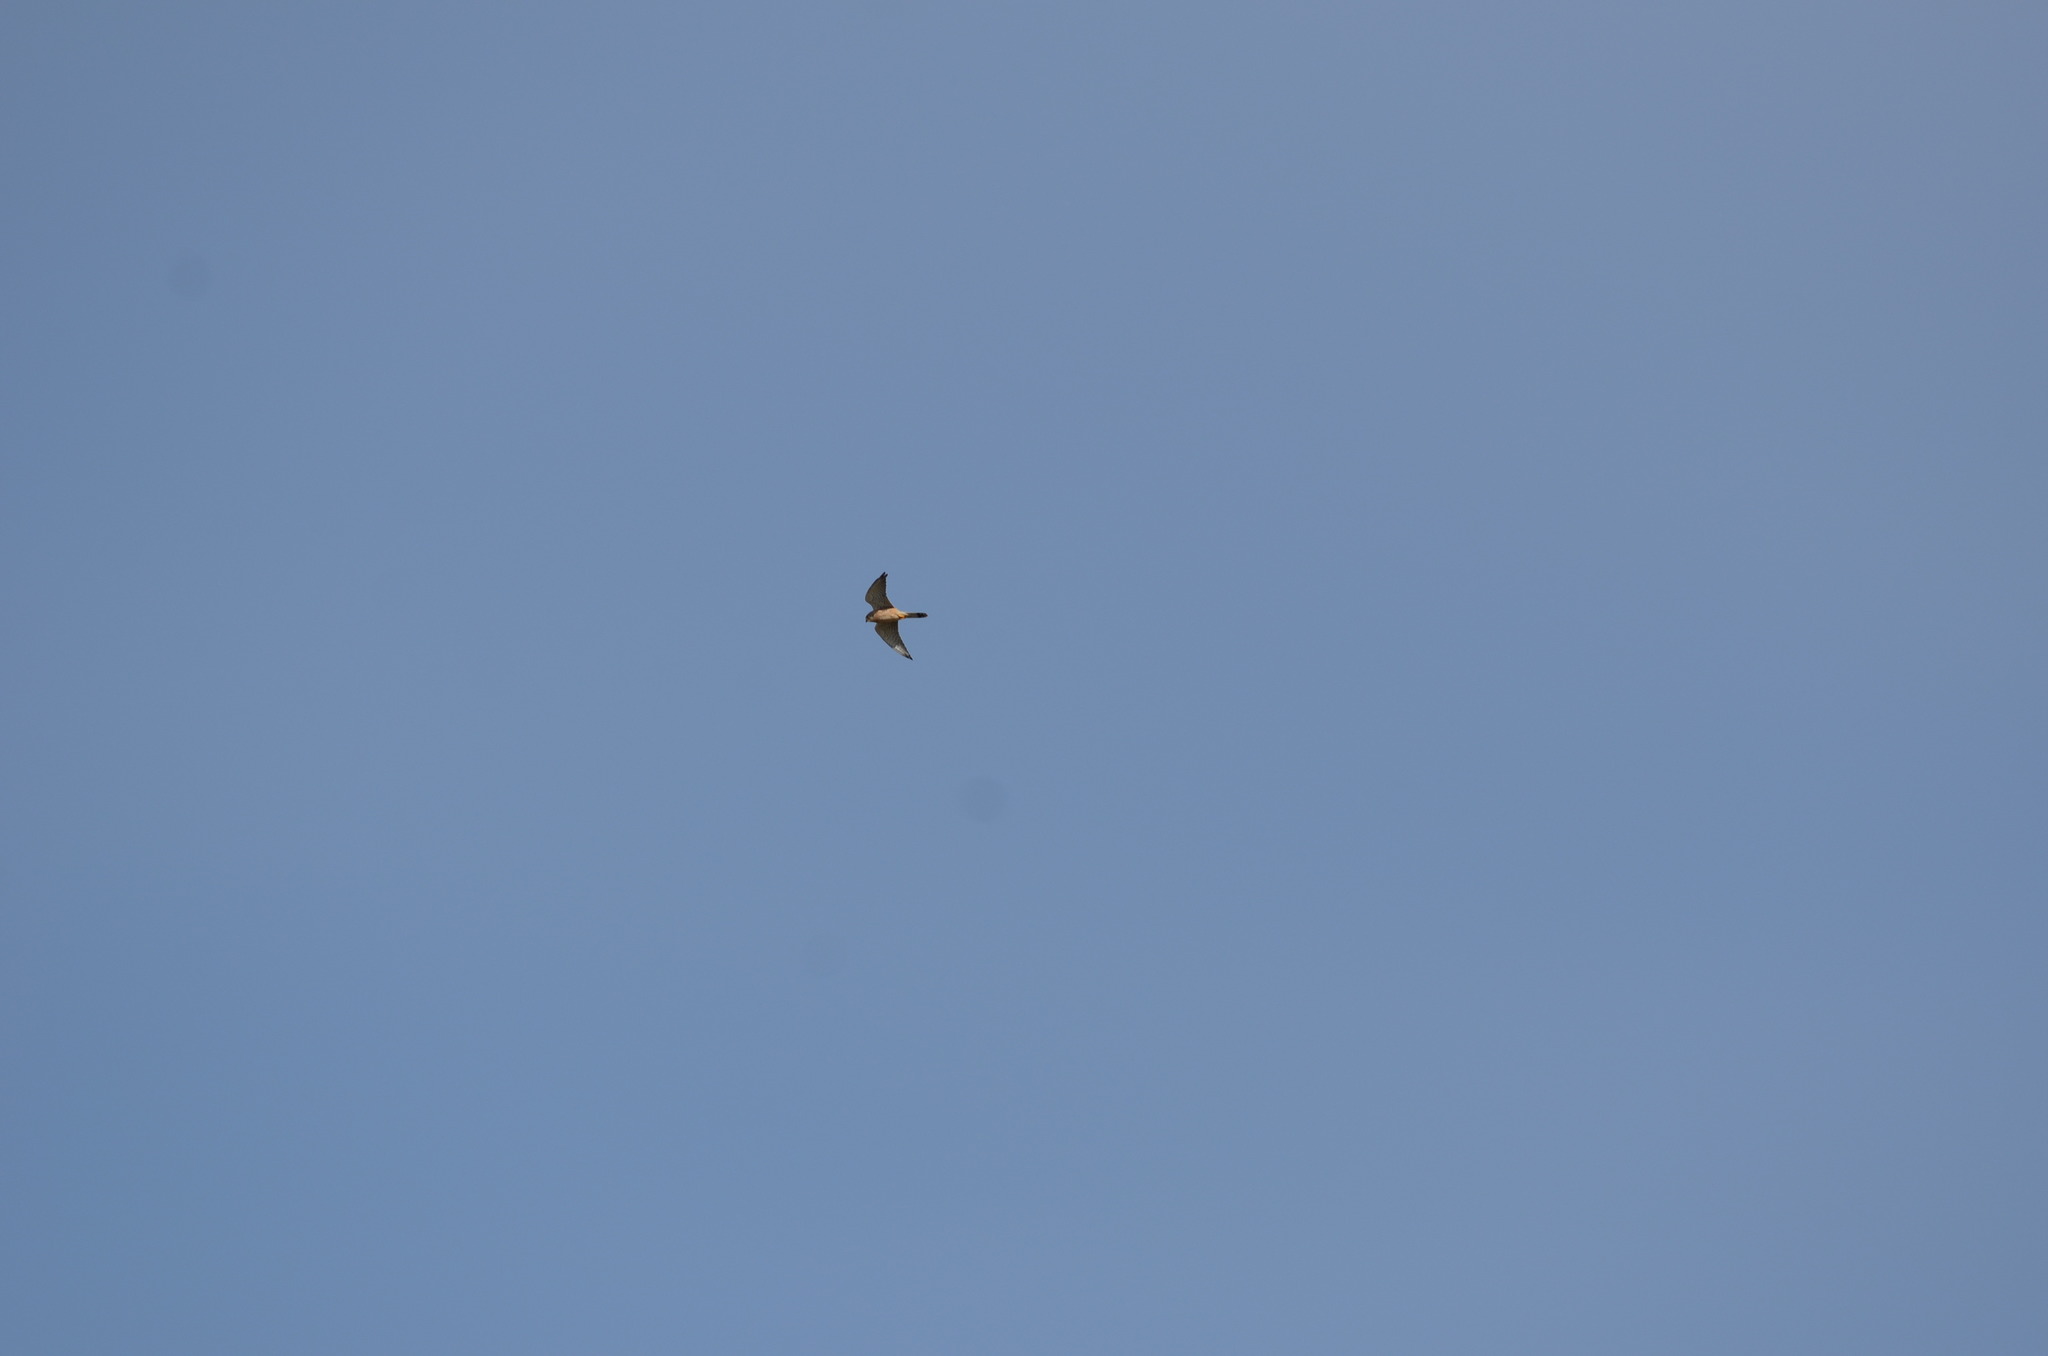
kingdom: Animalia
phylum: Chordata
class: Aves
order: Falconiformes
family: Falconidae
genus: Falco
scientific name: Falco tinnunculus
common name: Common kestrel
